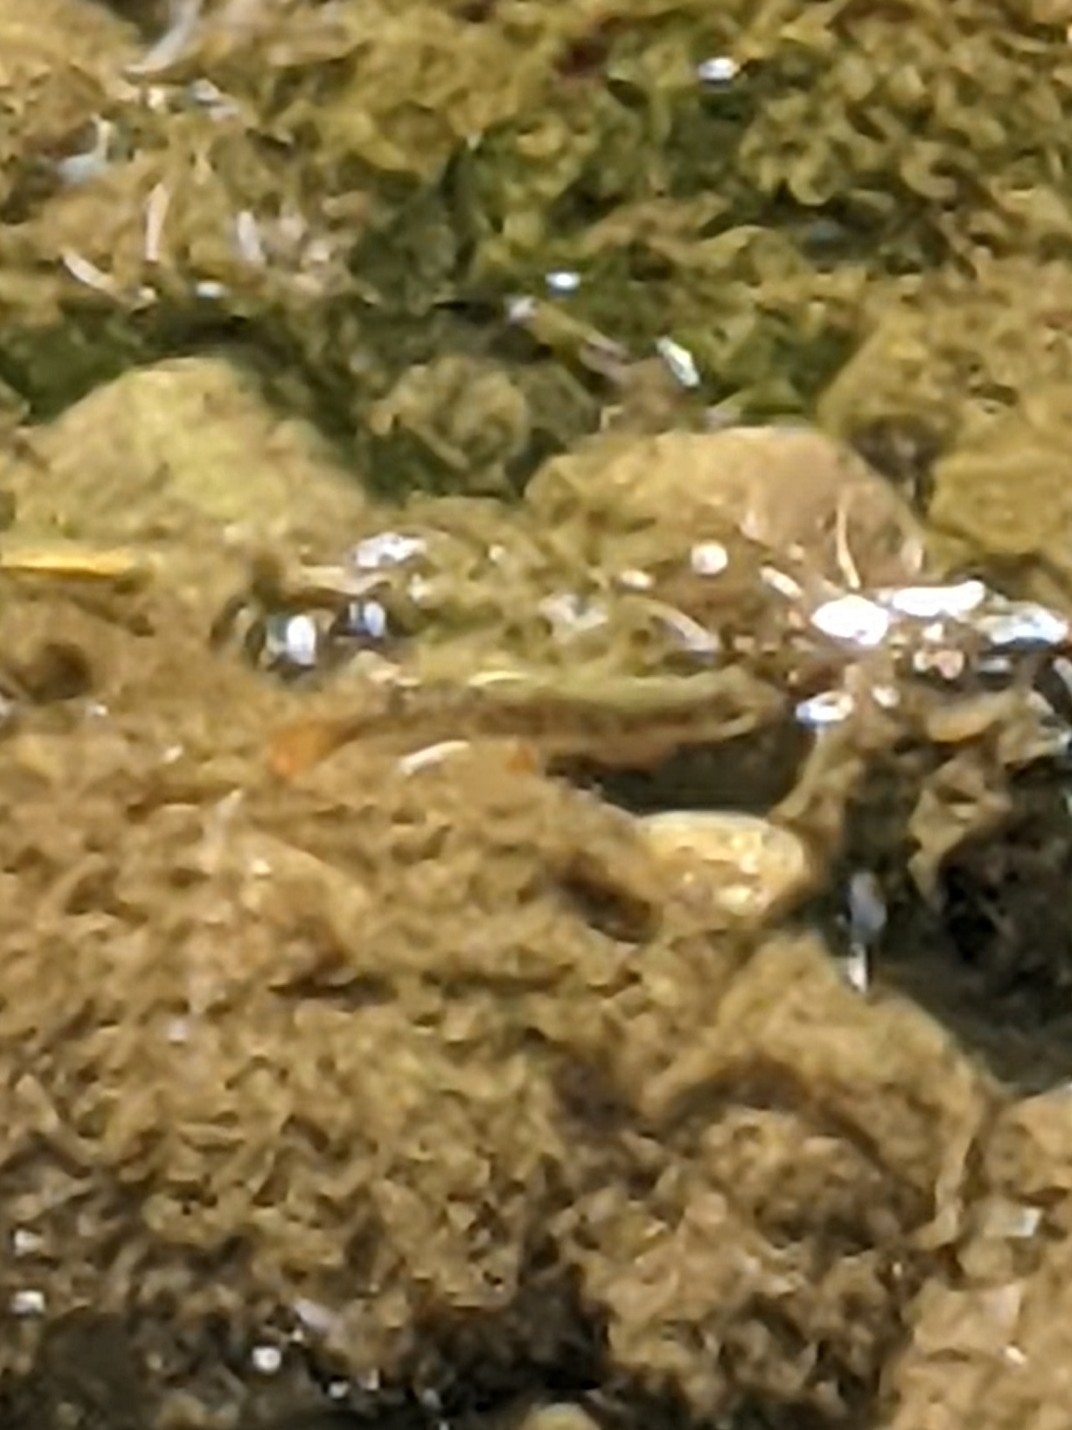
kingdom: Animalia
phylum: Chordata
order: Salmoniformes
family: Salmonidae
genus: Oncorhynchus
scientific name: Oncorhynchus kisutch
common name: Coho salmon
